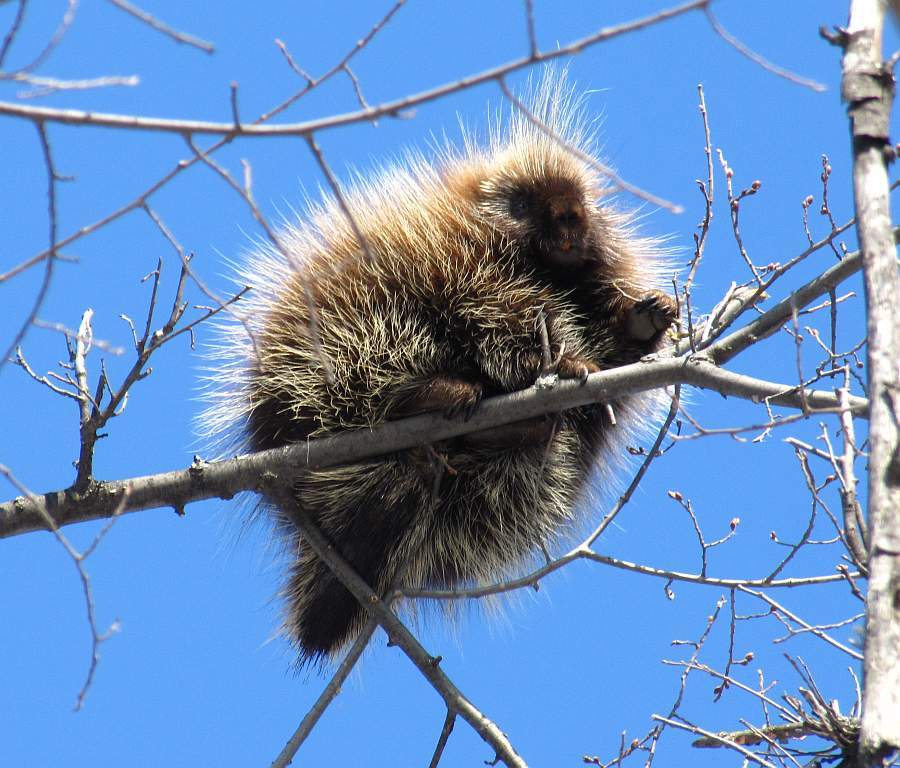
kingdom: Animalia
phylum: Chordata
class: Mammalia
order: Rodentia
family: Erethizontidae
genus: Erethizon
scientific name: Erethizon dorsatus
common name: North american porcupine
